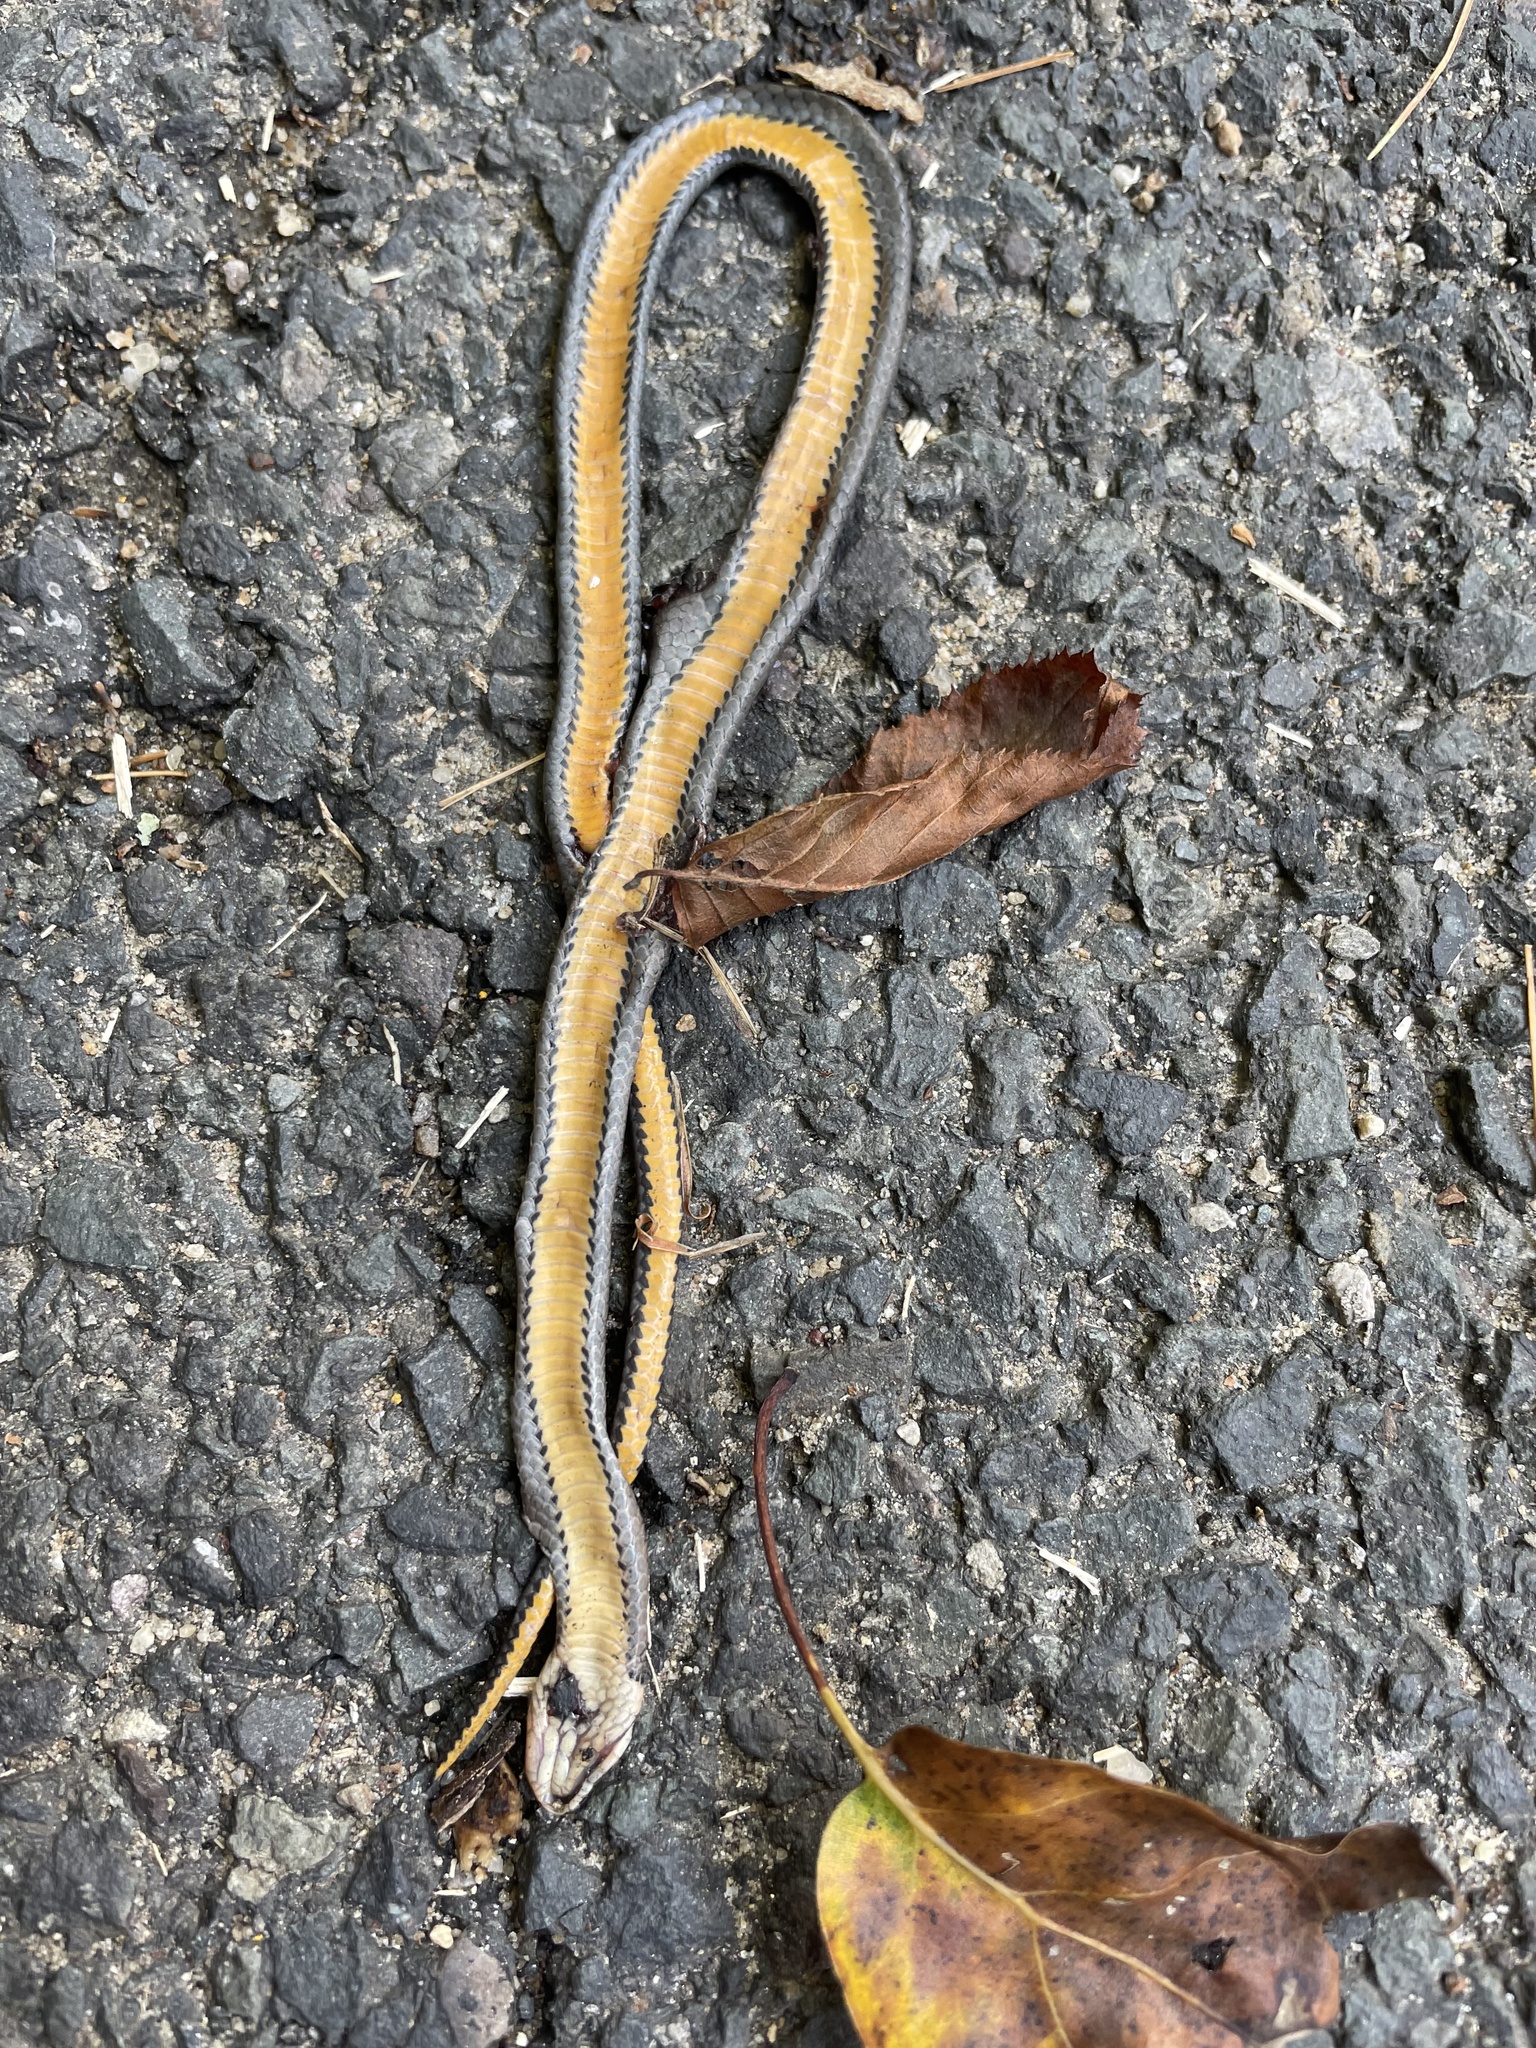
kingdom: Animalia
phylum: Chordata
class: Squamata
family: Colubridae
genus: Diadophis
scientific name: Diadophis punctatus
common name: Ringneck snake
